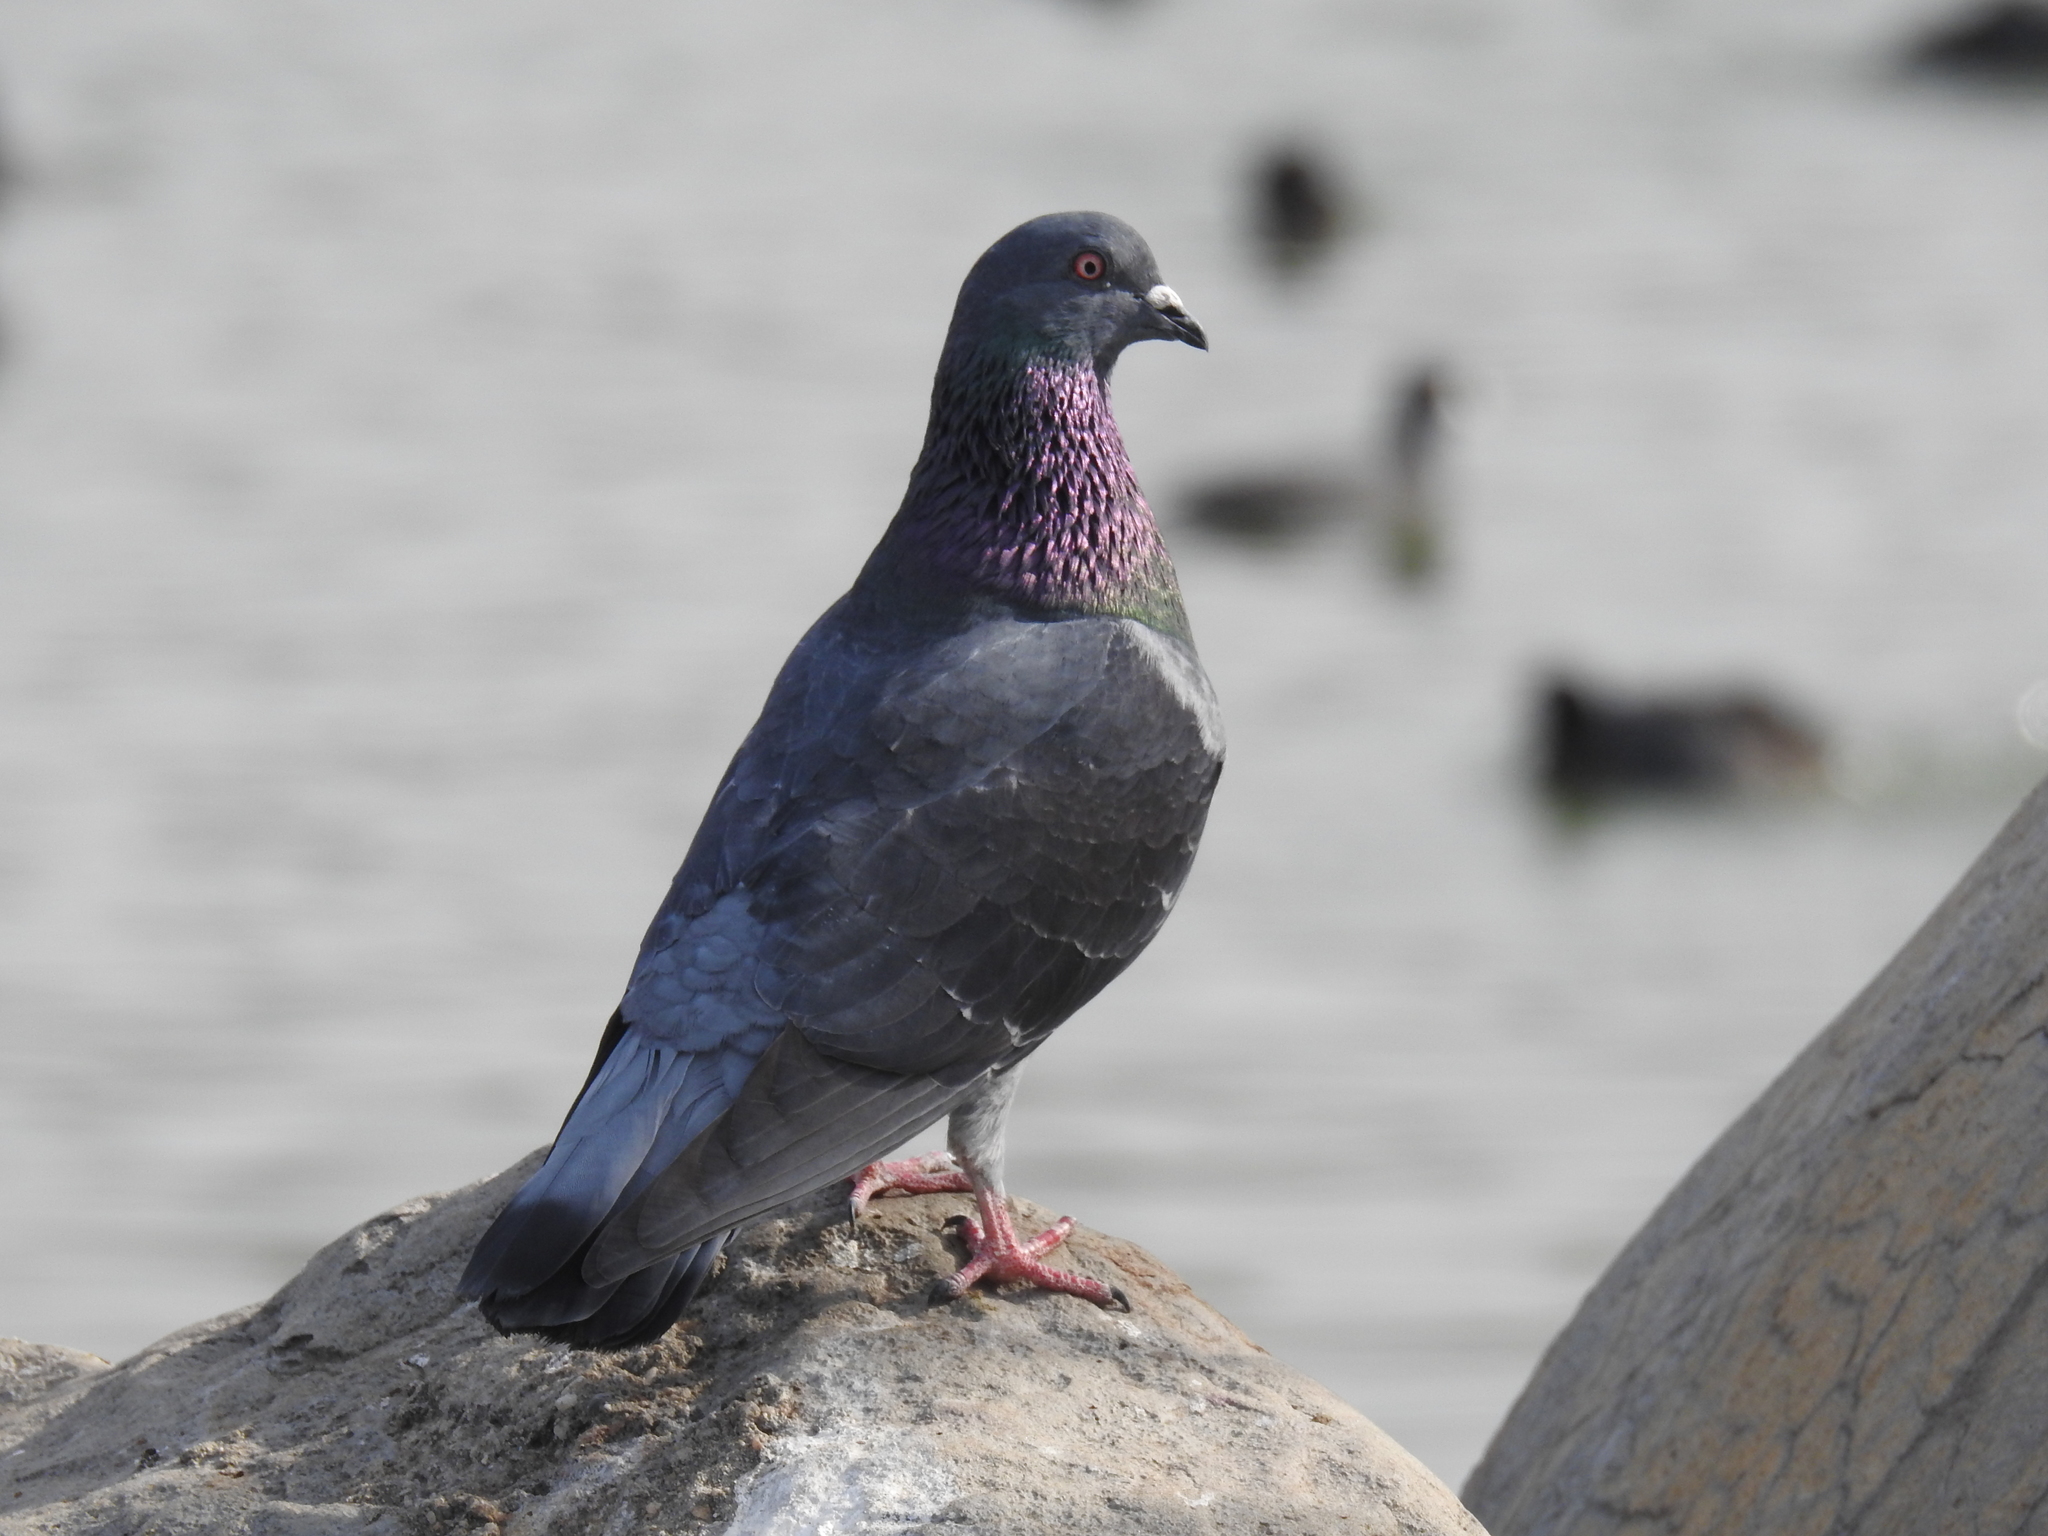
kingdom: Animalia
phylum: Chordata
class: Aves
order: Columbiformes
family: Columbidae
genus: Columba
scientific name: Columba livia
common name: Rock pigeon
